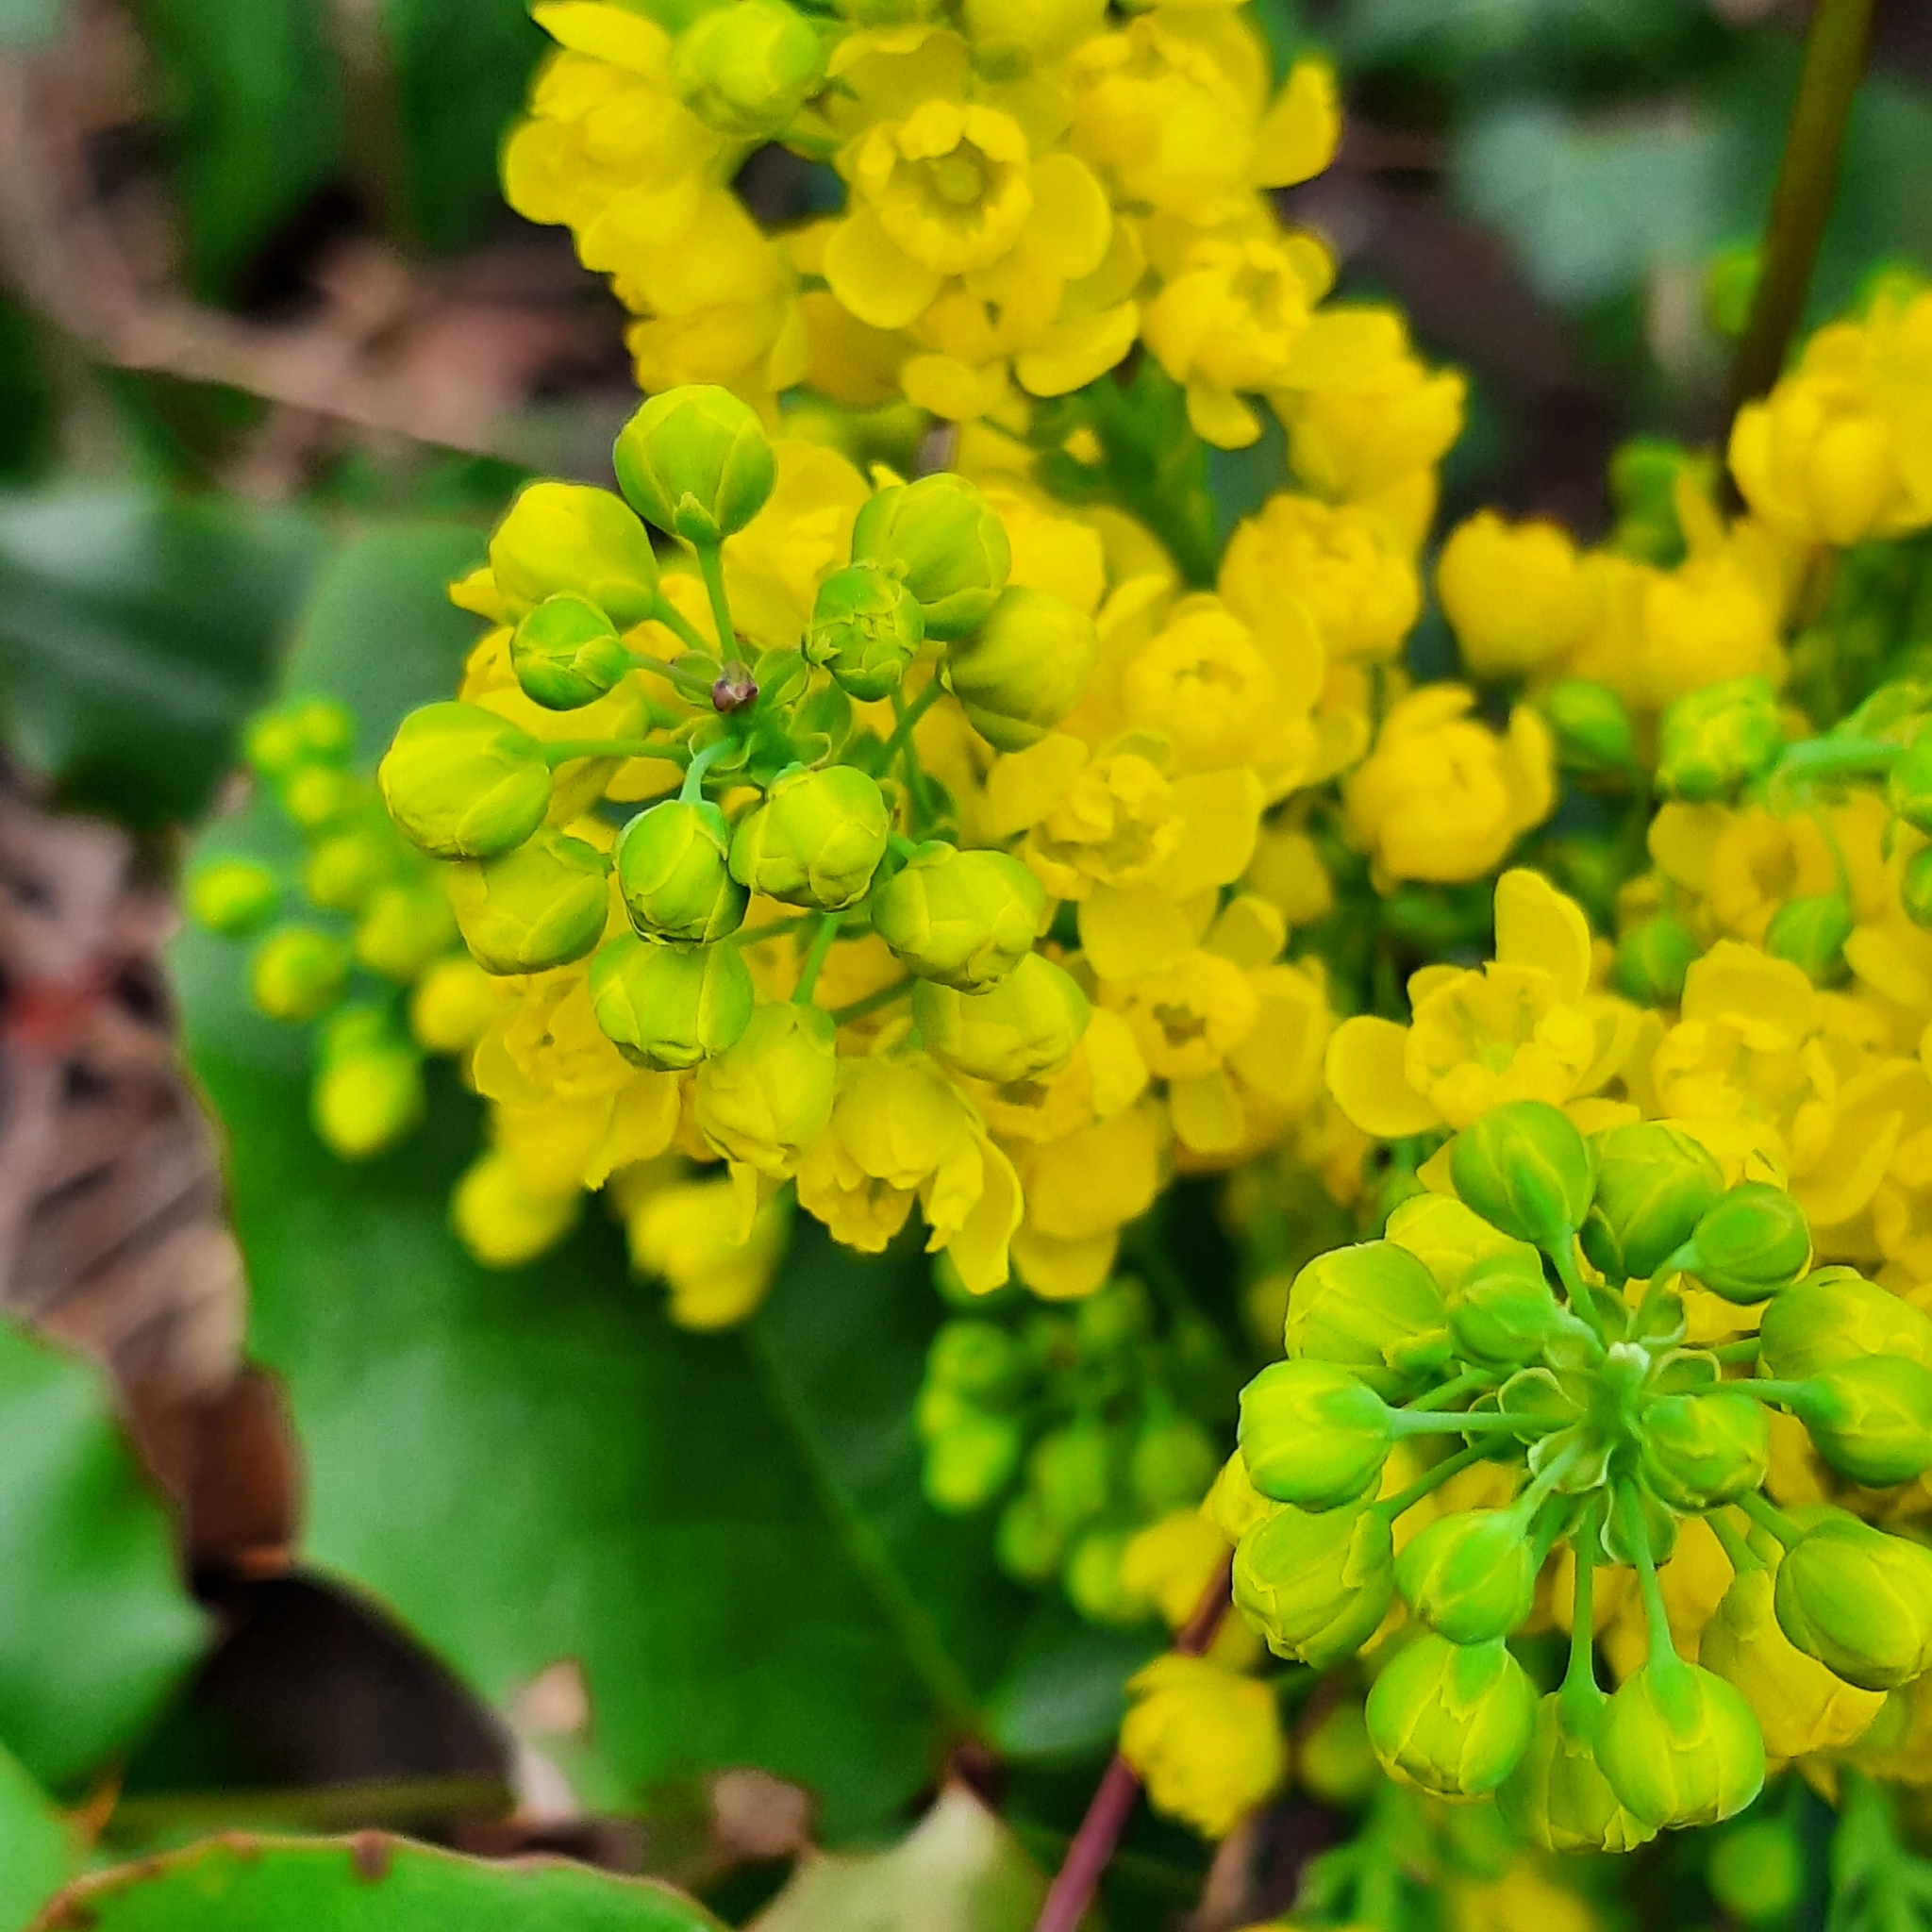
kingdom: Plantae
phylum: Tracheophyta
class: Magnoliopsida
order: Ranunculales
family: Berberidaceae
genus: Mahonia
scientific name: Mahonia aquifolium
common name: Oregon-grape
